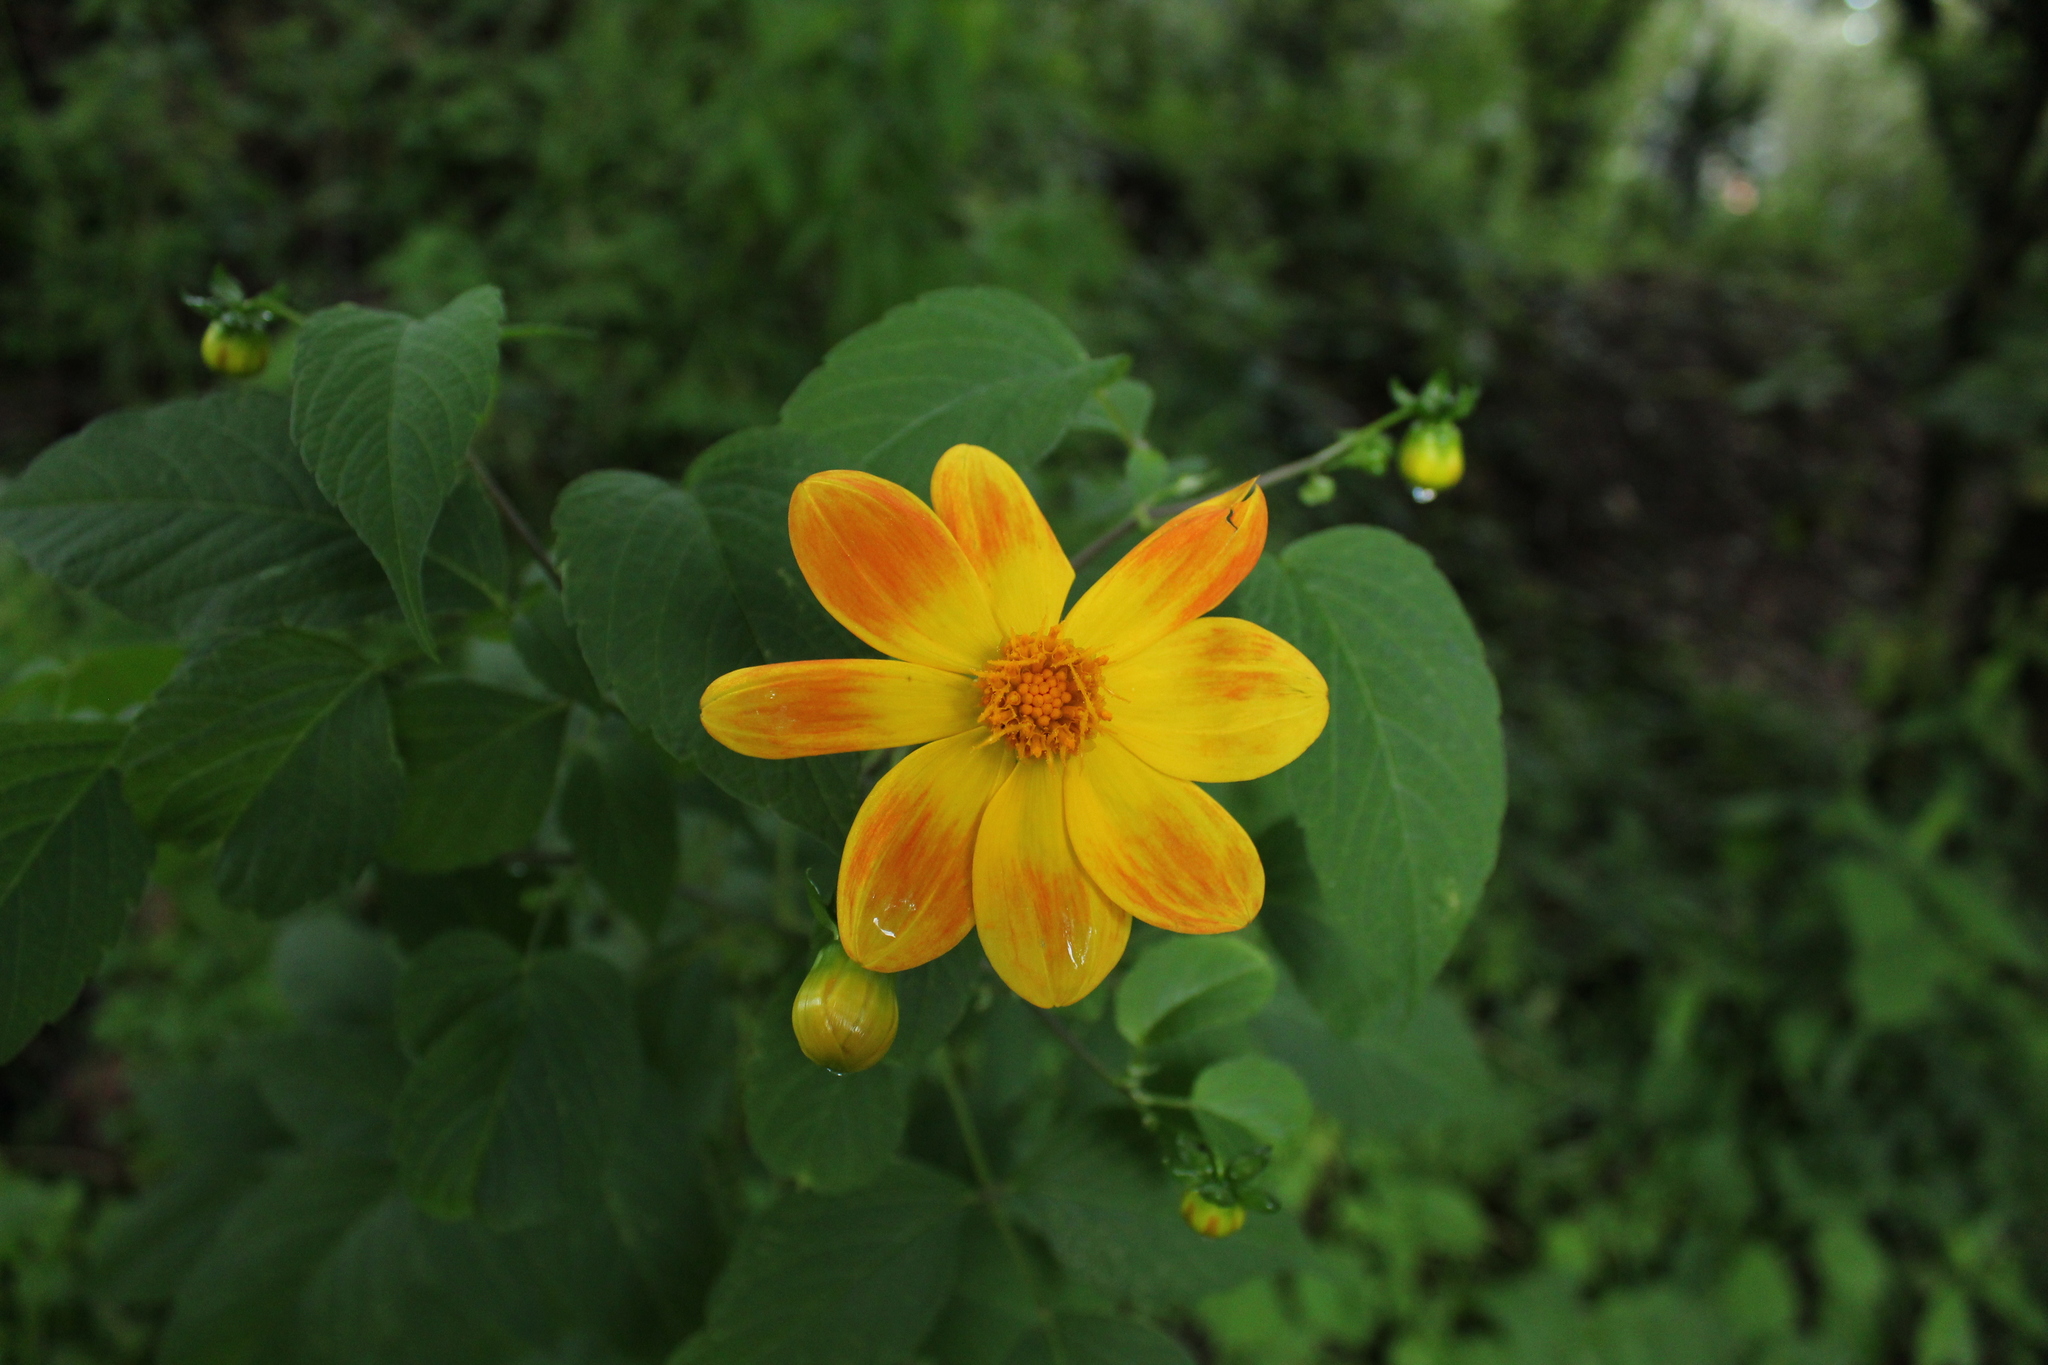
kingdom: Plantae
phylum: Tracheophyta
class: Magnoliopsida
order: Asterales
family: Asteraceae
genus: Dahlia
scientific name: Dahlia coccinea
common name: Red dahlia
